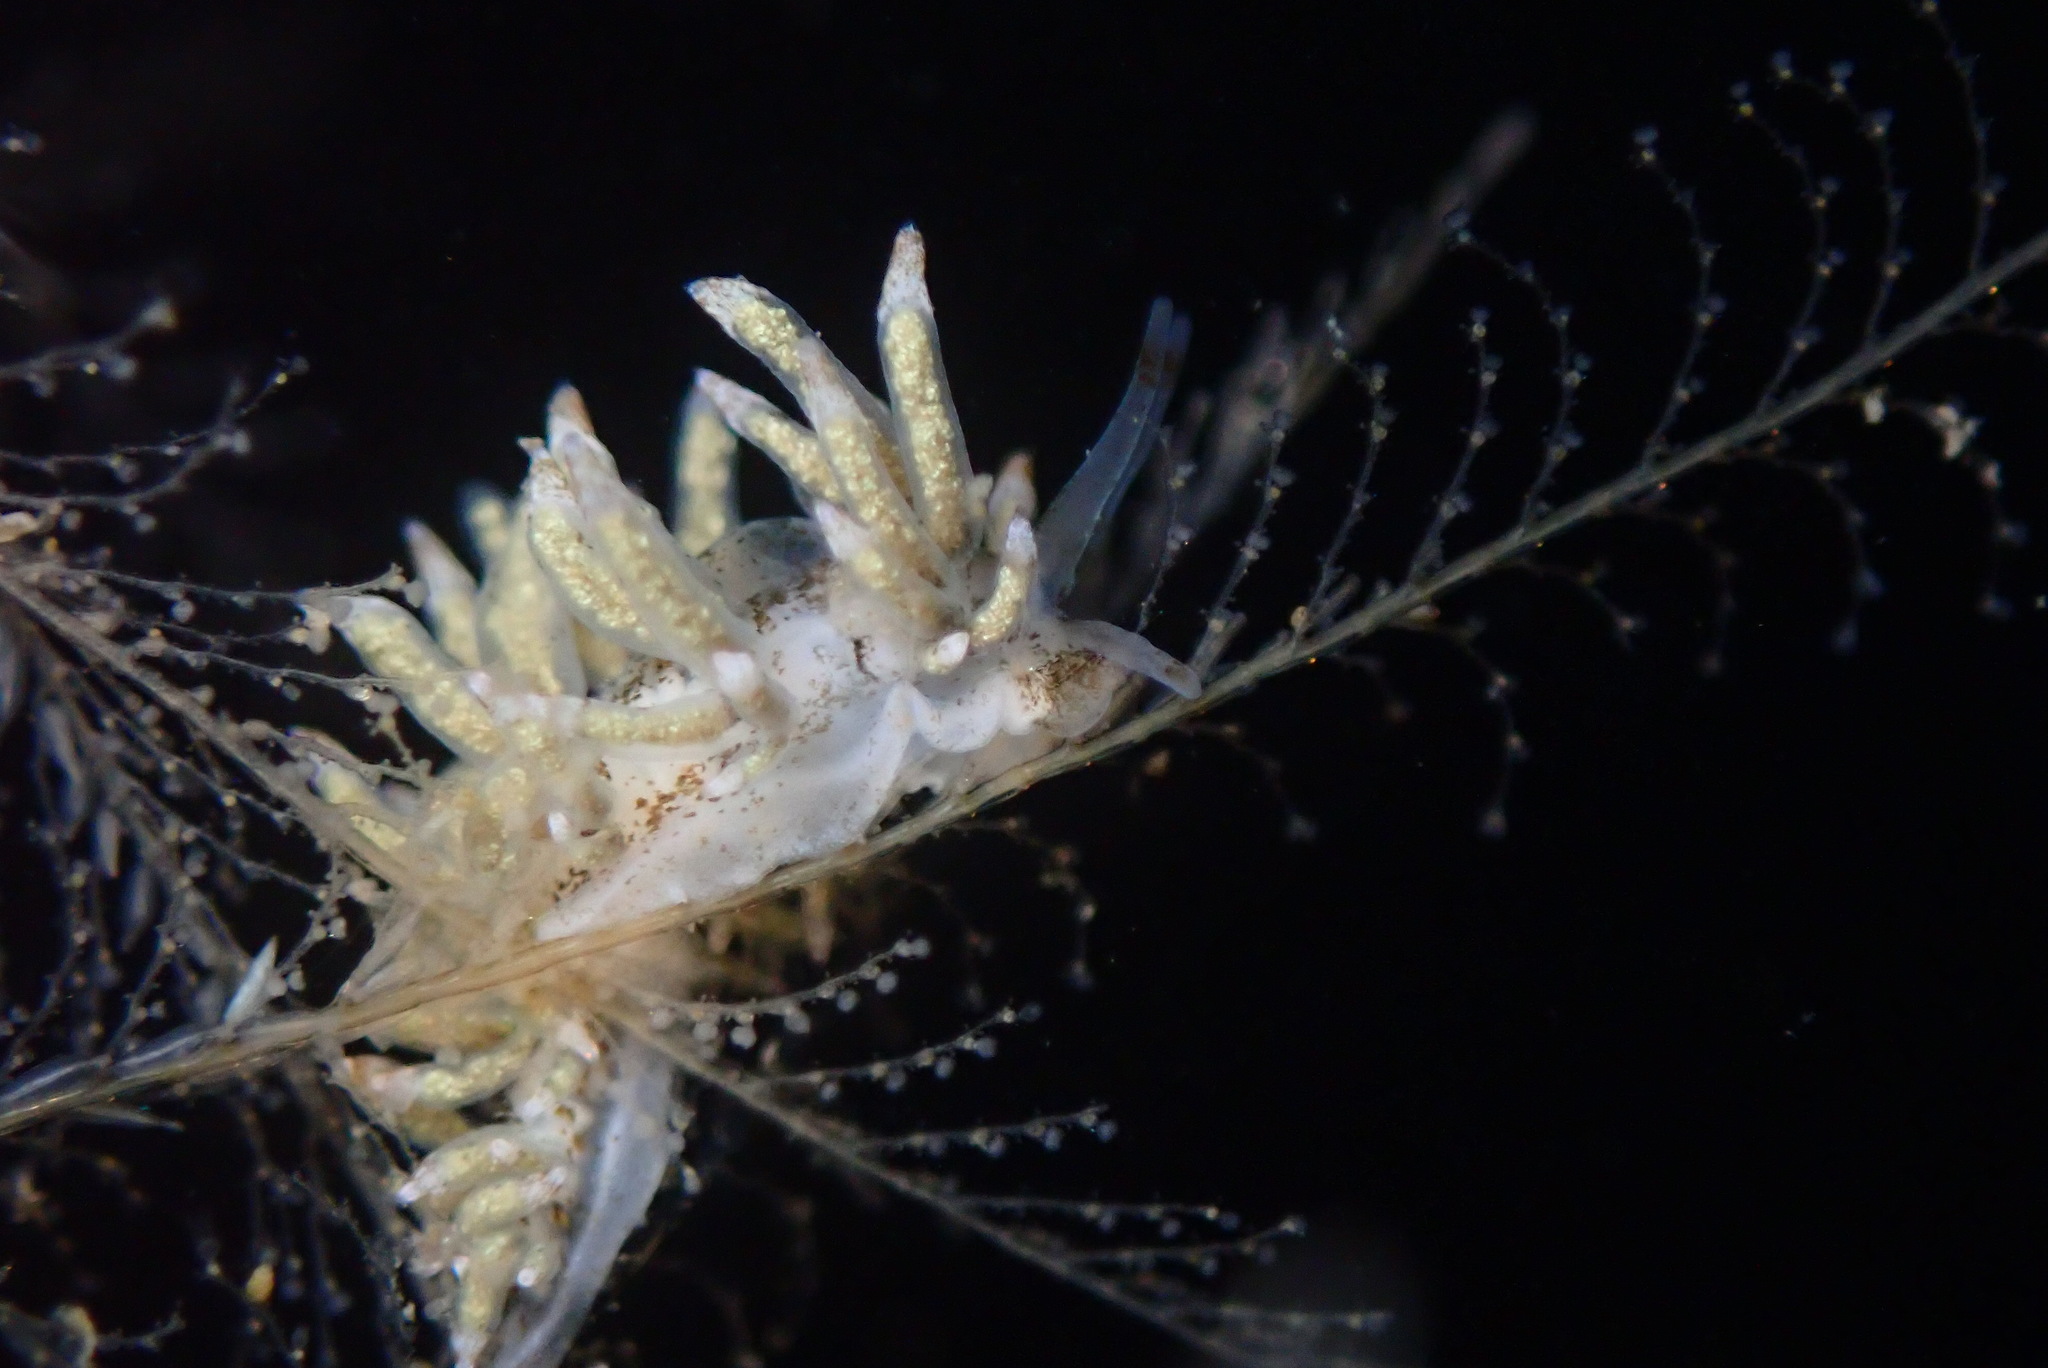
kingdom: Animalia
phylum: Mollusca
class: Gastropoda
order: Nudibranchia
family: Eubranchidae
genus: Eubranchus
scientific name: Eubranchus rustyus
